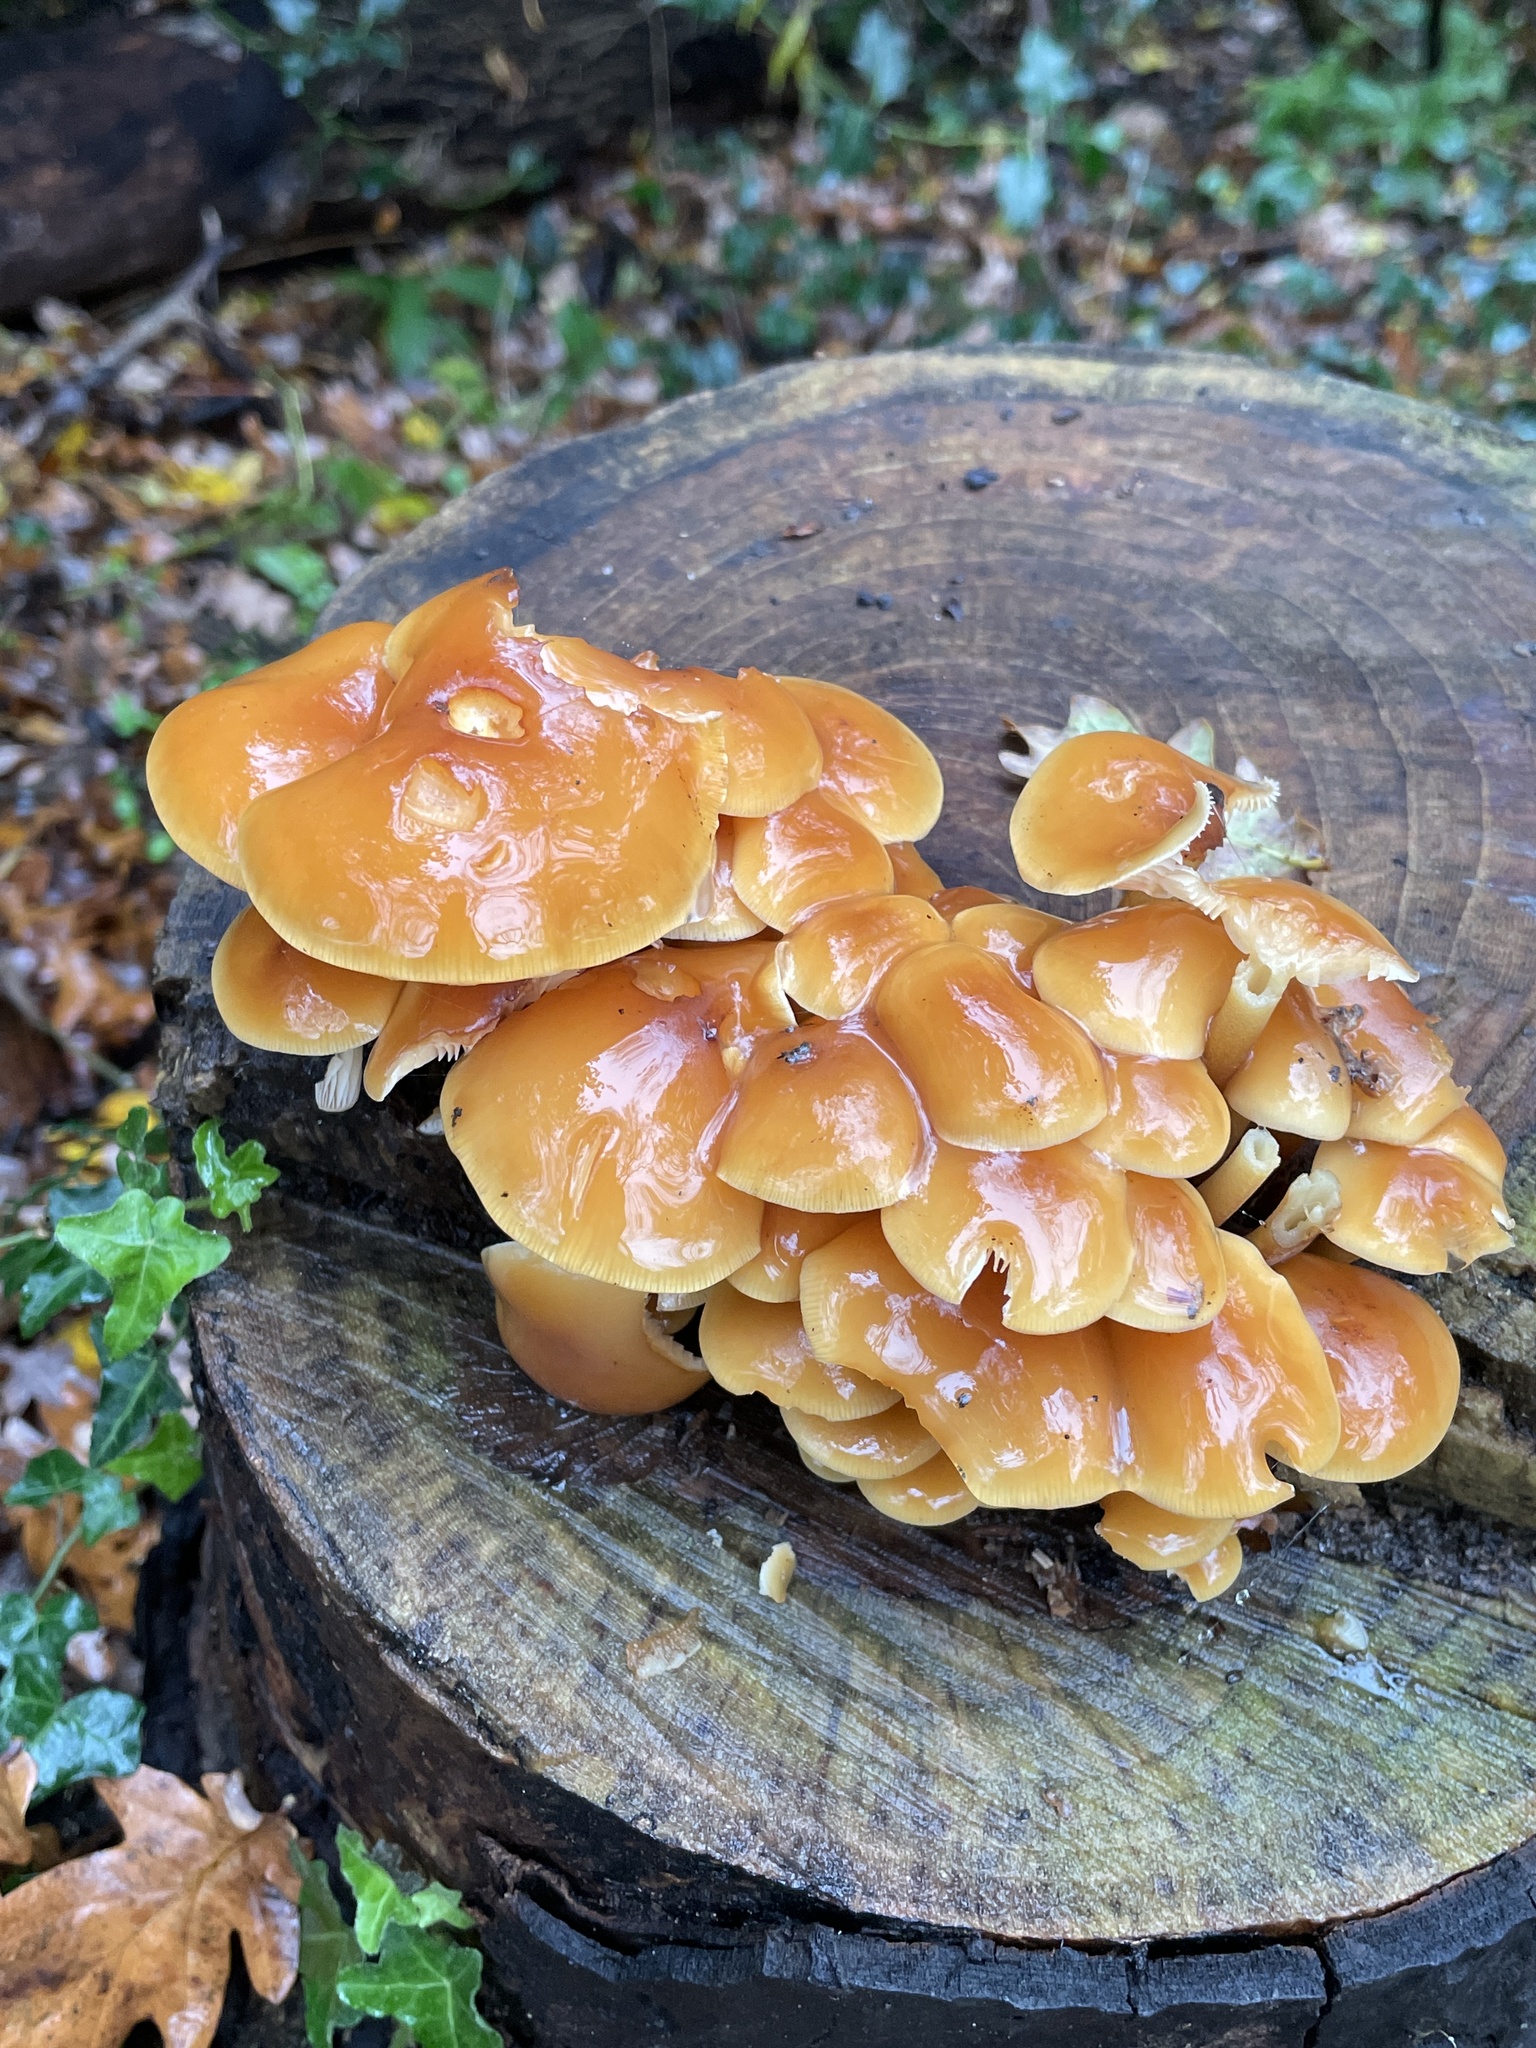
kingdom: Fungi
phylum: Basidiomycota
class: Agaricomycetes
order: Agaricales
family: Physalacriaceae
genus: Flammulina
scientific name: Flammulina
